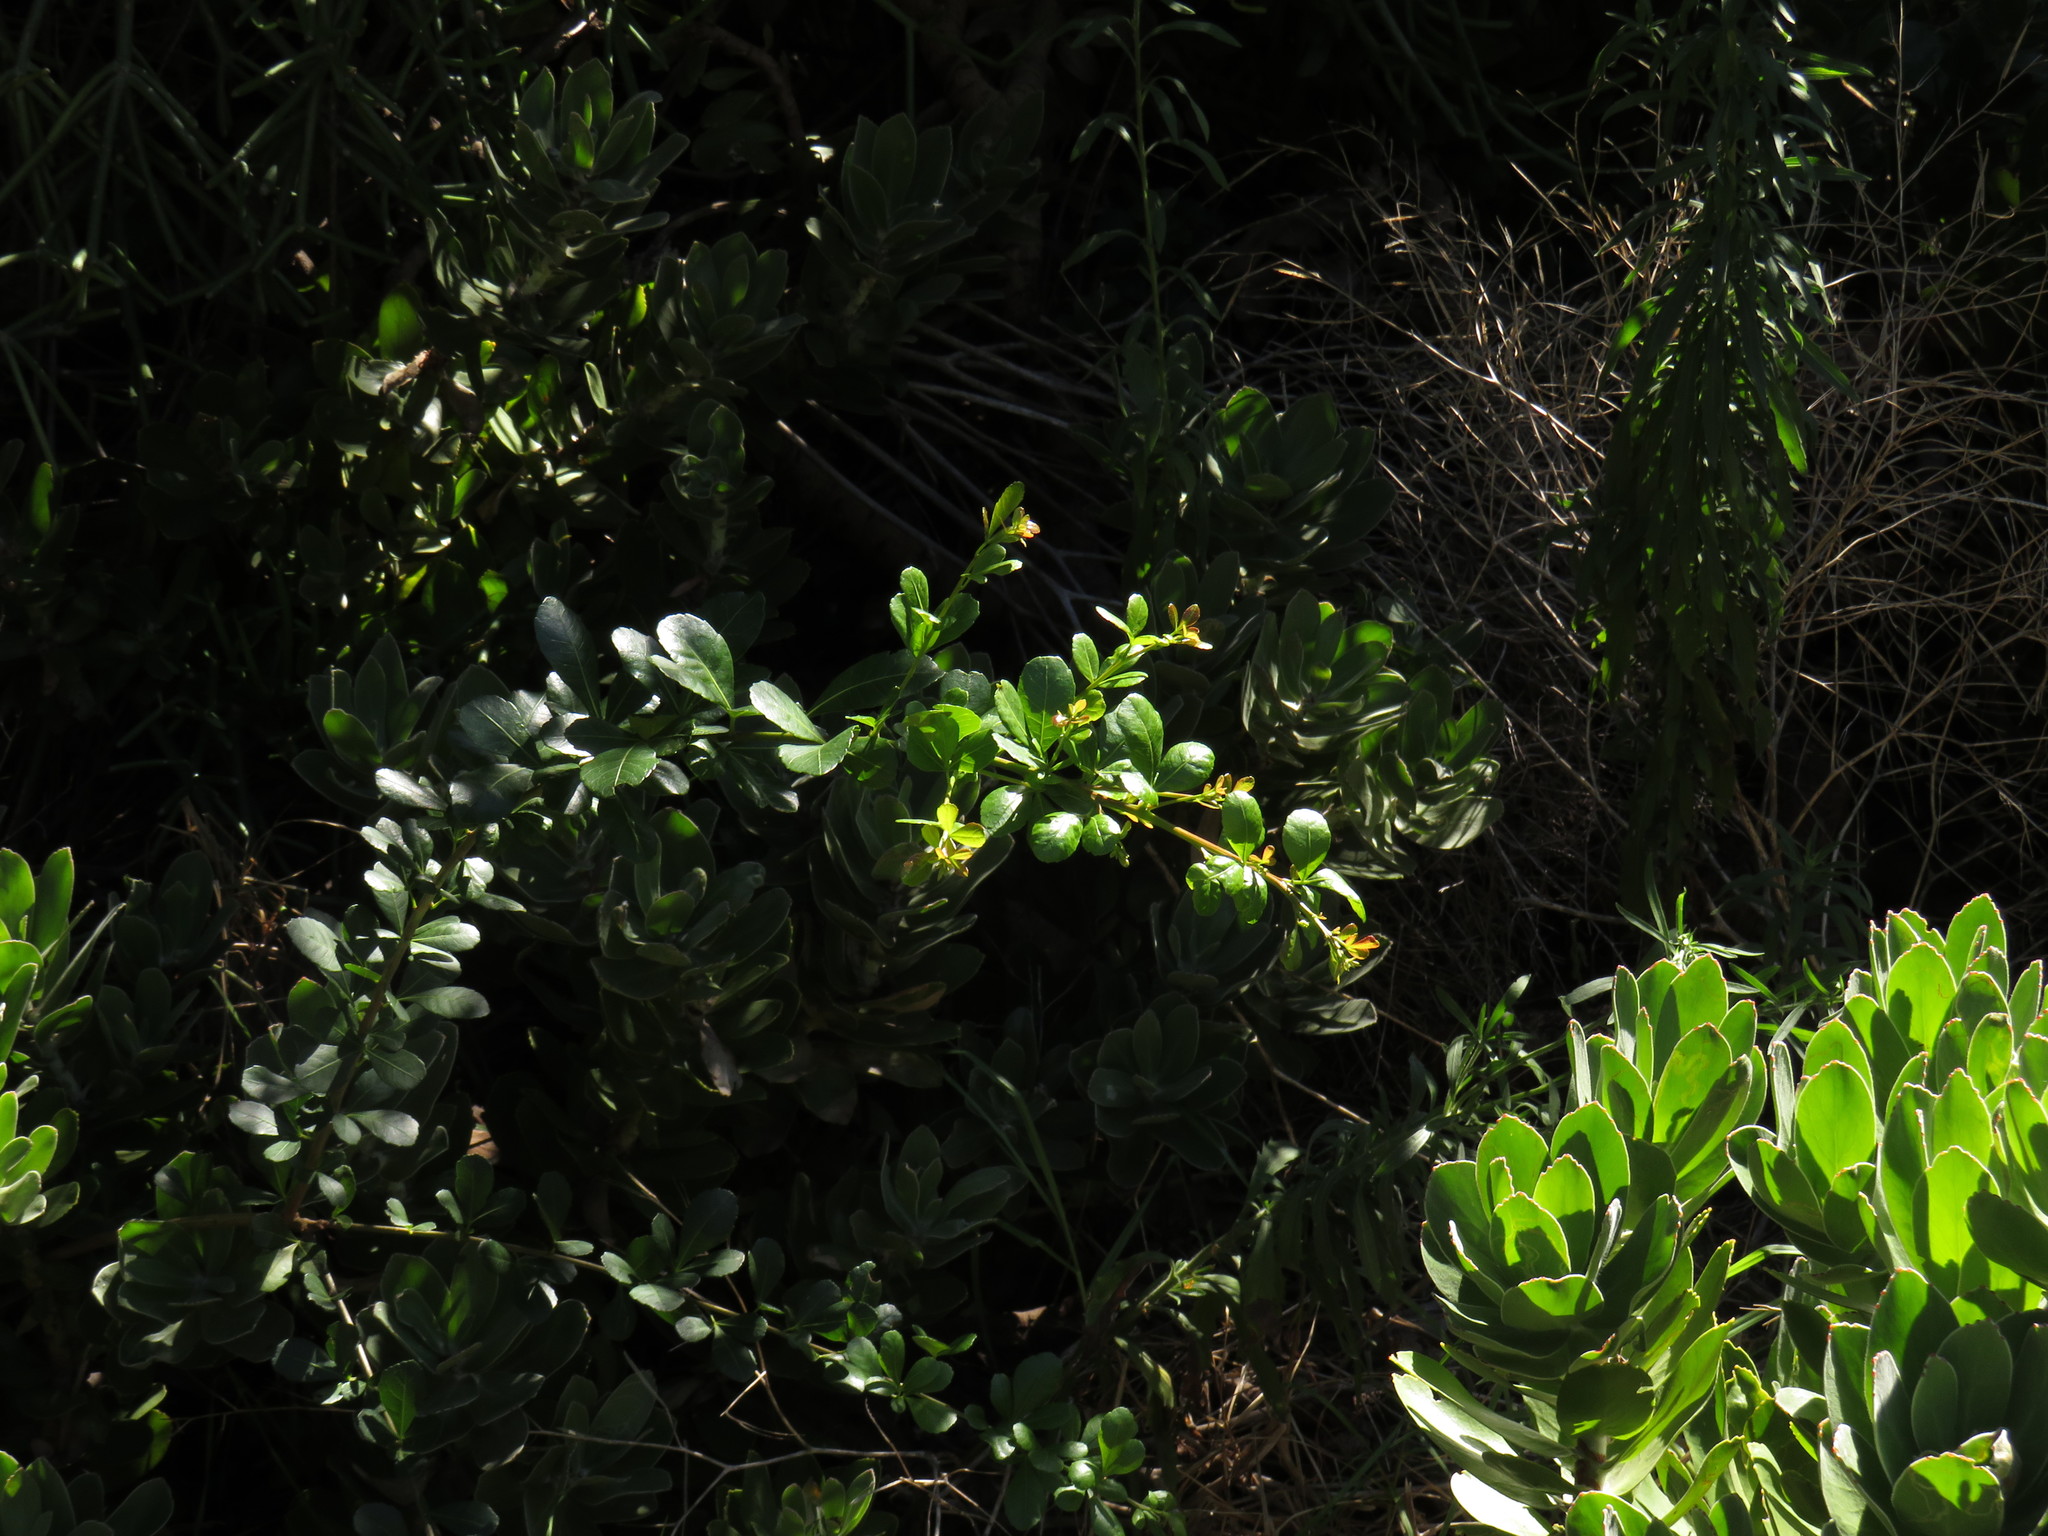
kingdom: Plantae
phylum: Tracheophyta
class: Magnoliopsida
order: Sapindales
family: Anacardiaceae
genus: Searsia
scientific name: Searsia crenata
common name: Crowberry
